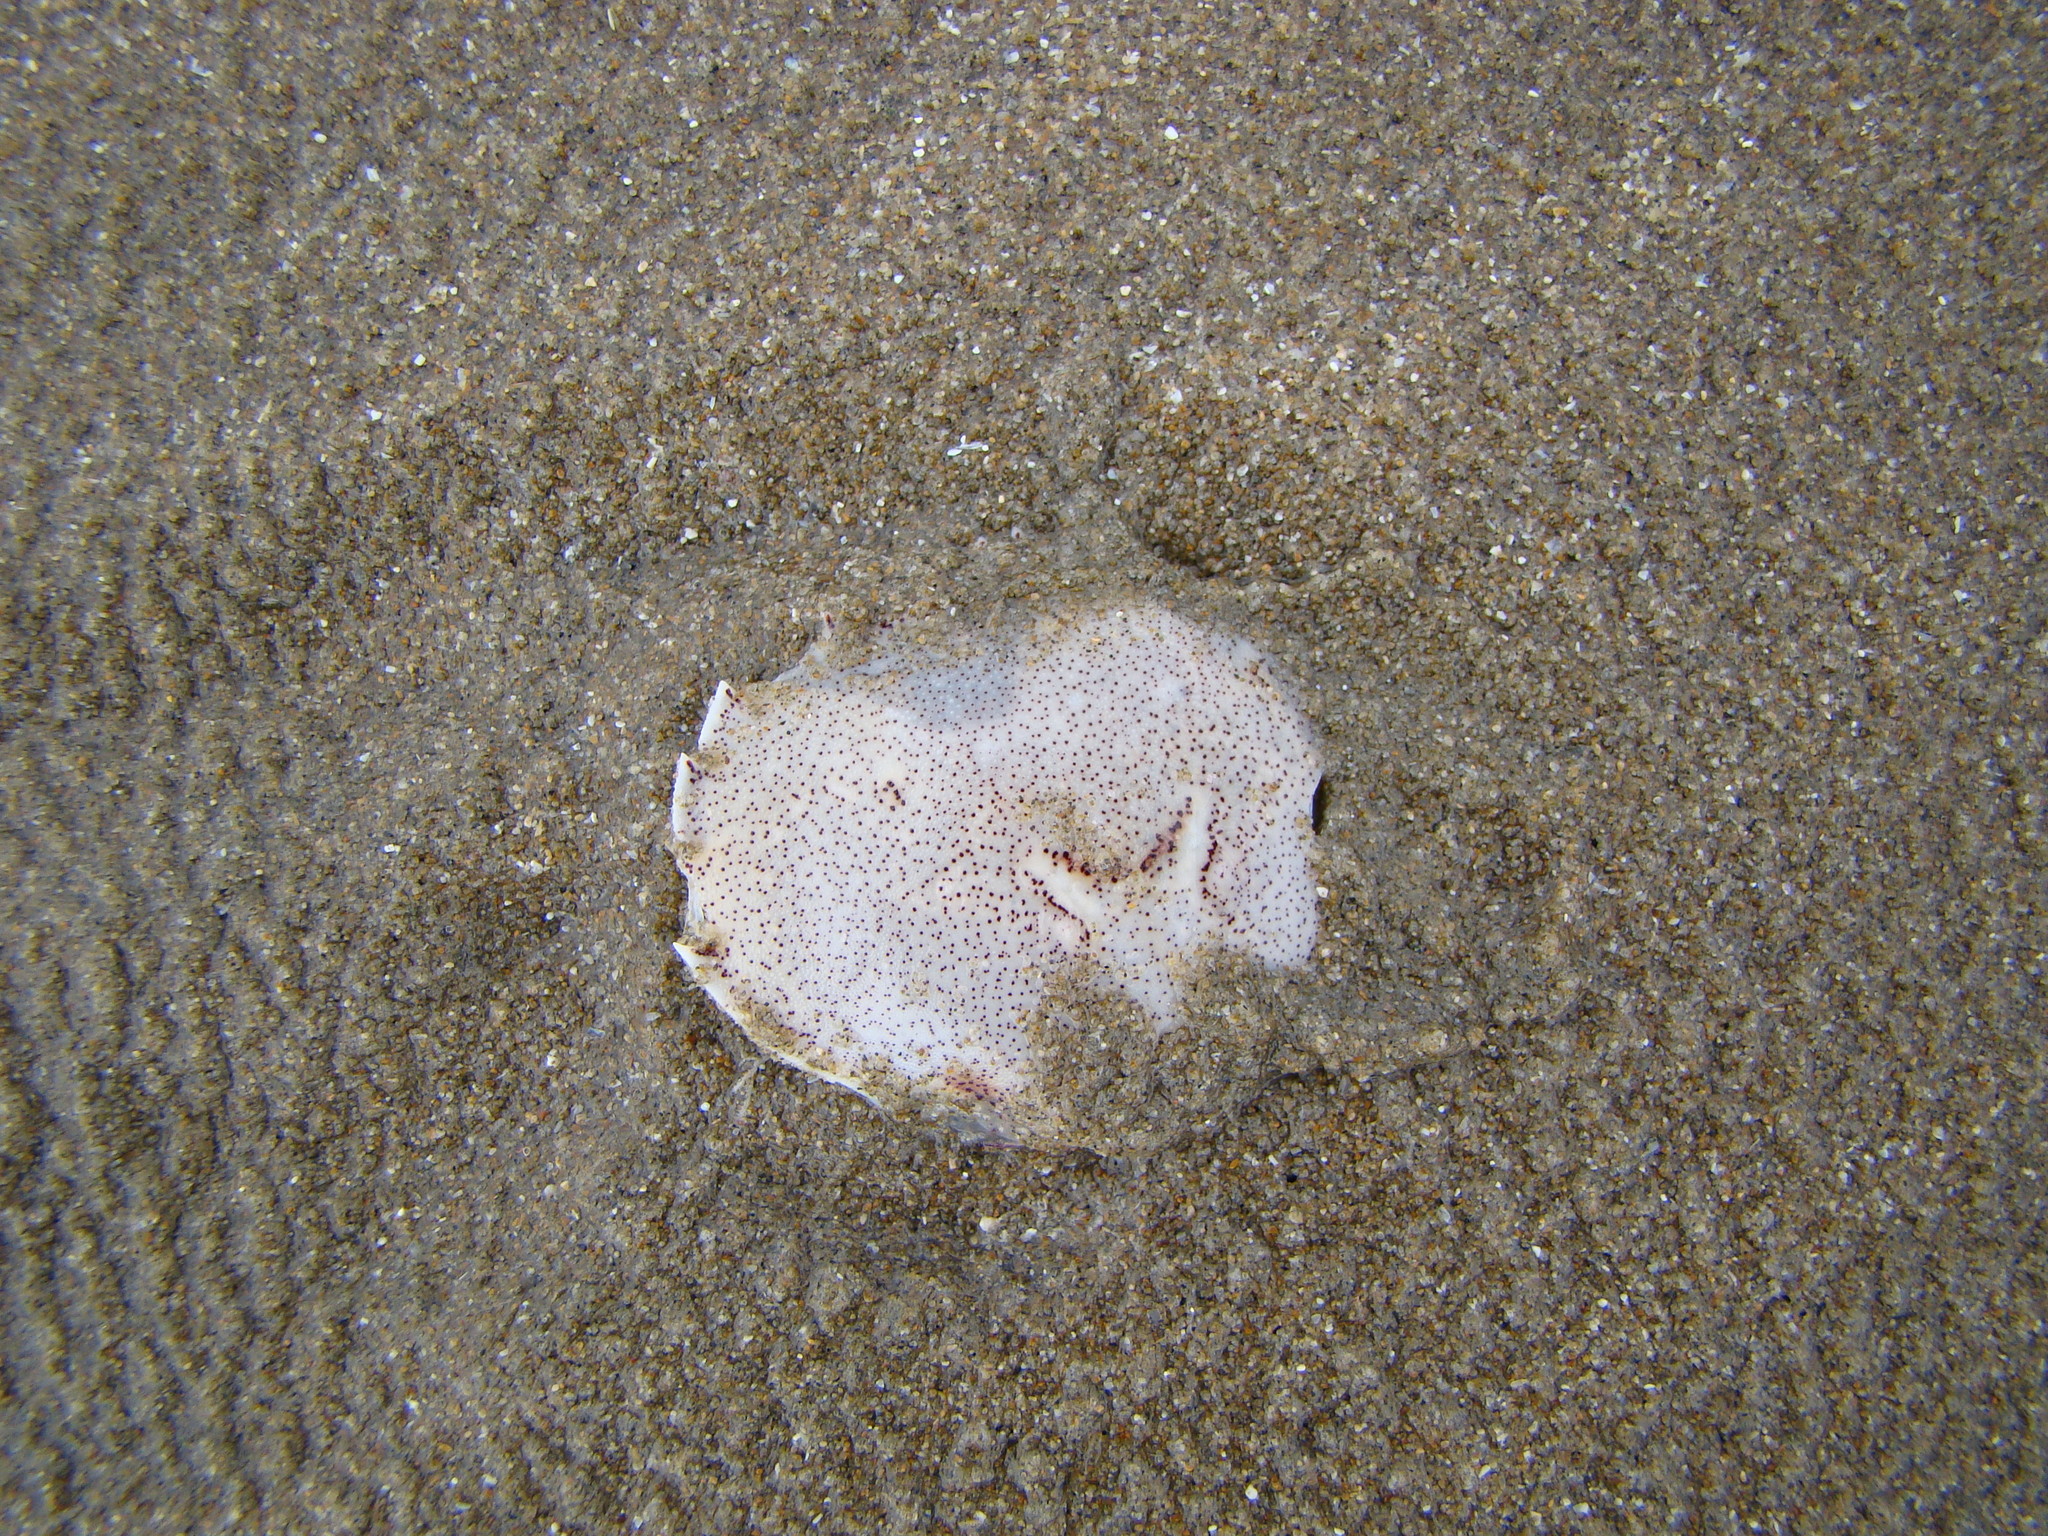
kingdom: Animalia
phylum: Arthropoda
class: Malacostraca
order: Decapoda
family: Ovalipidae
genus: Ovalipes
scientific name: Ovalipes catharus
